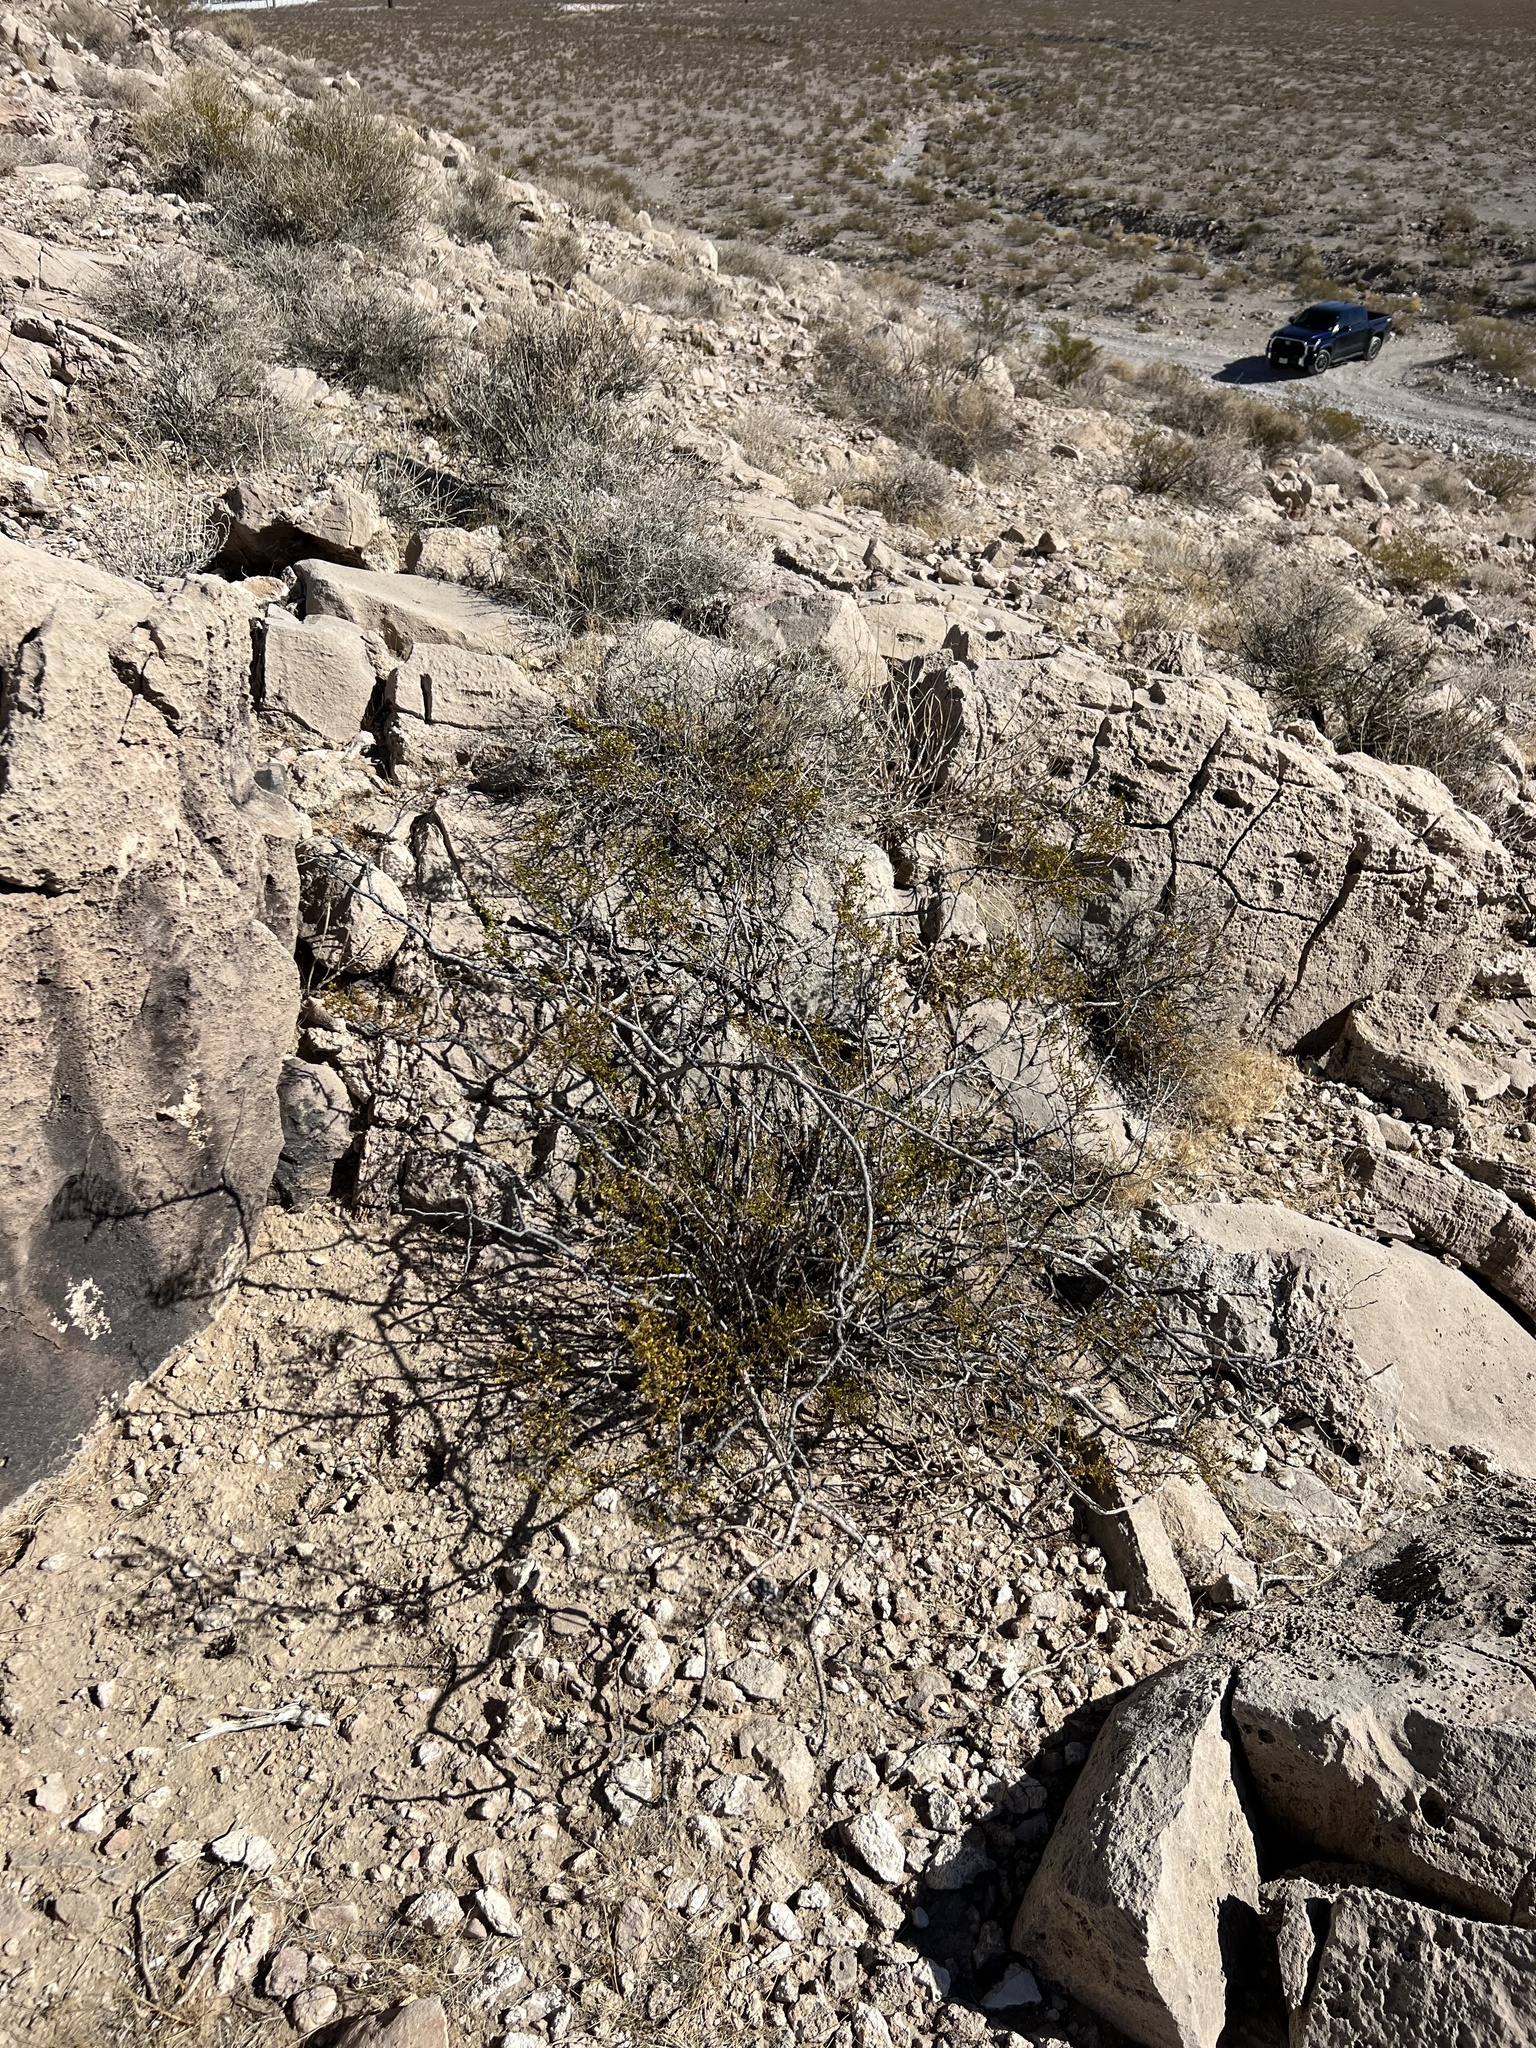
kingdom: Plantae
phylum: Tracheophyta
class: Magnoliopsida
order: Zygophyllales
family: Zygophyllaceae
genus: Larrea
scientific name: Larrea tridentata
